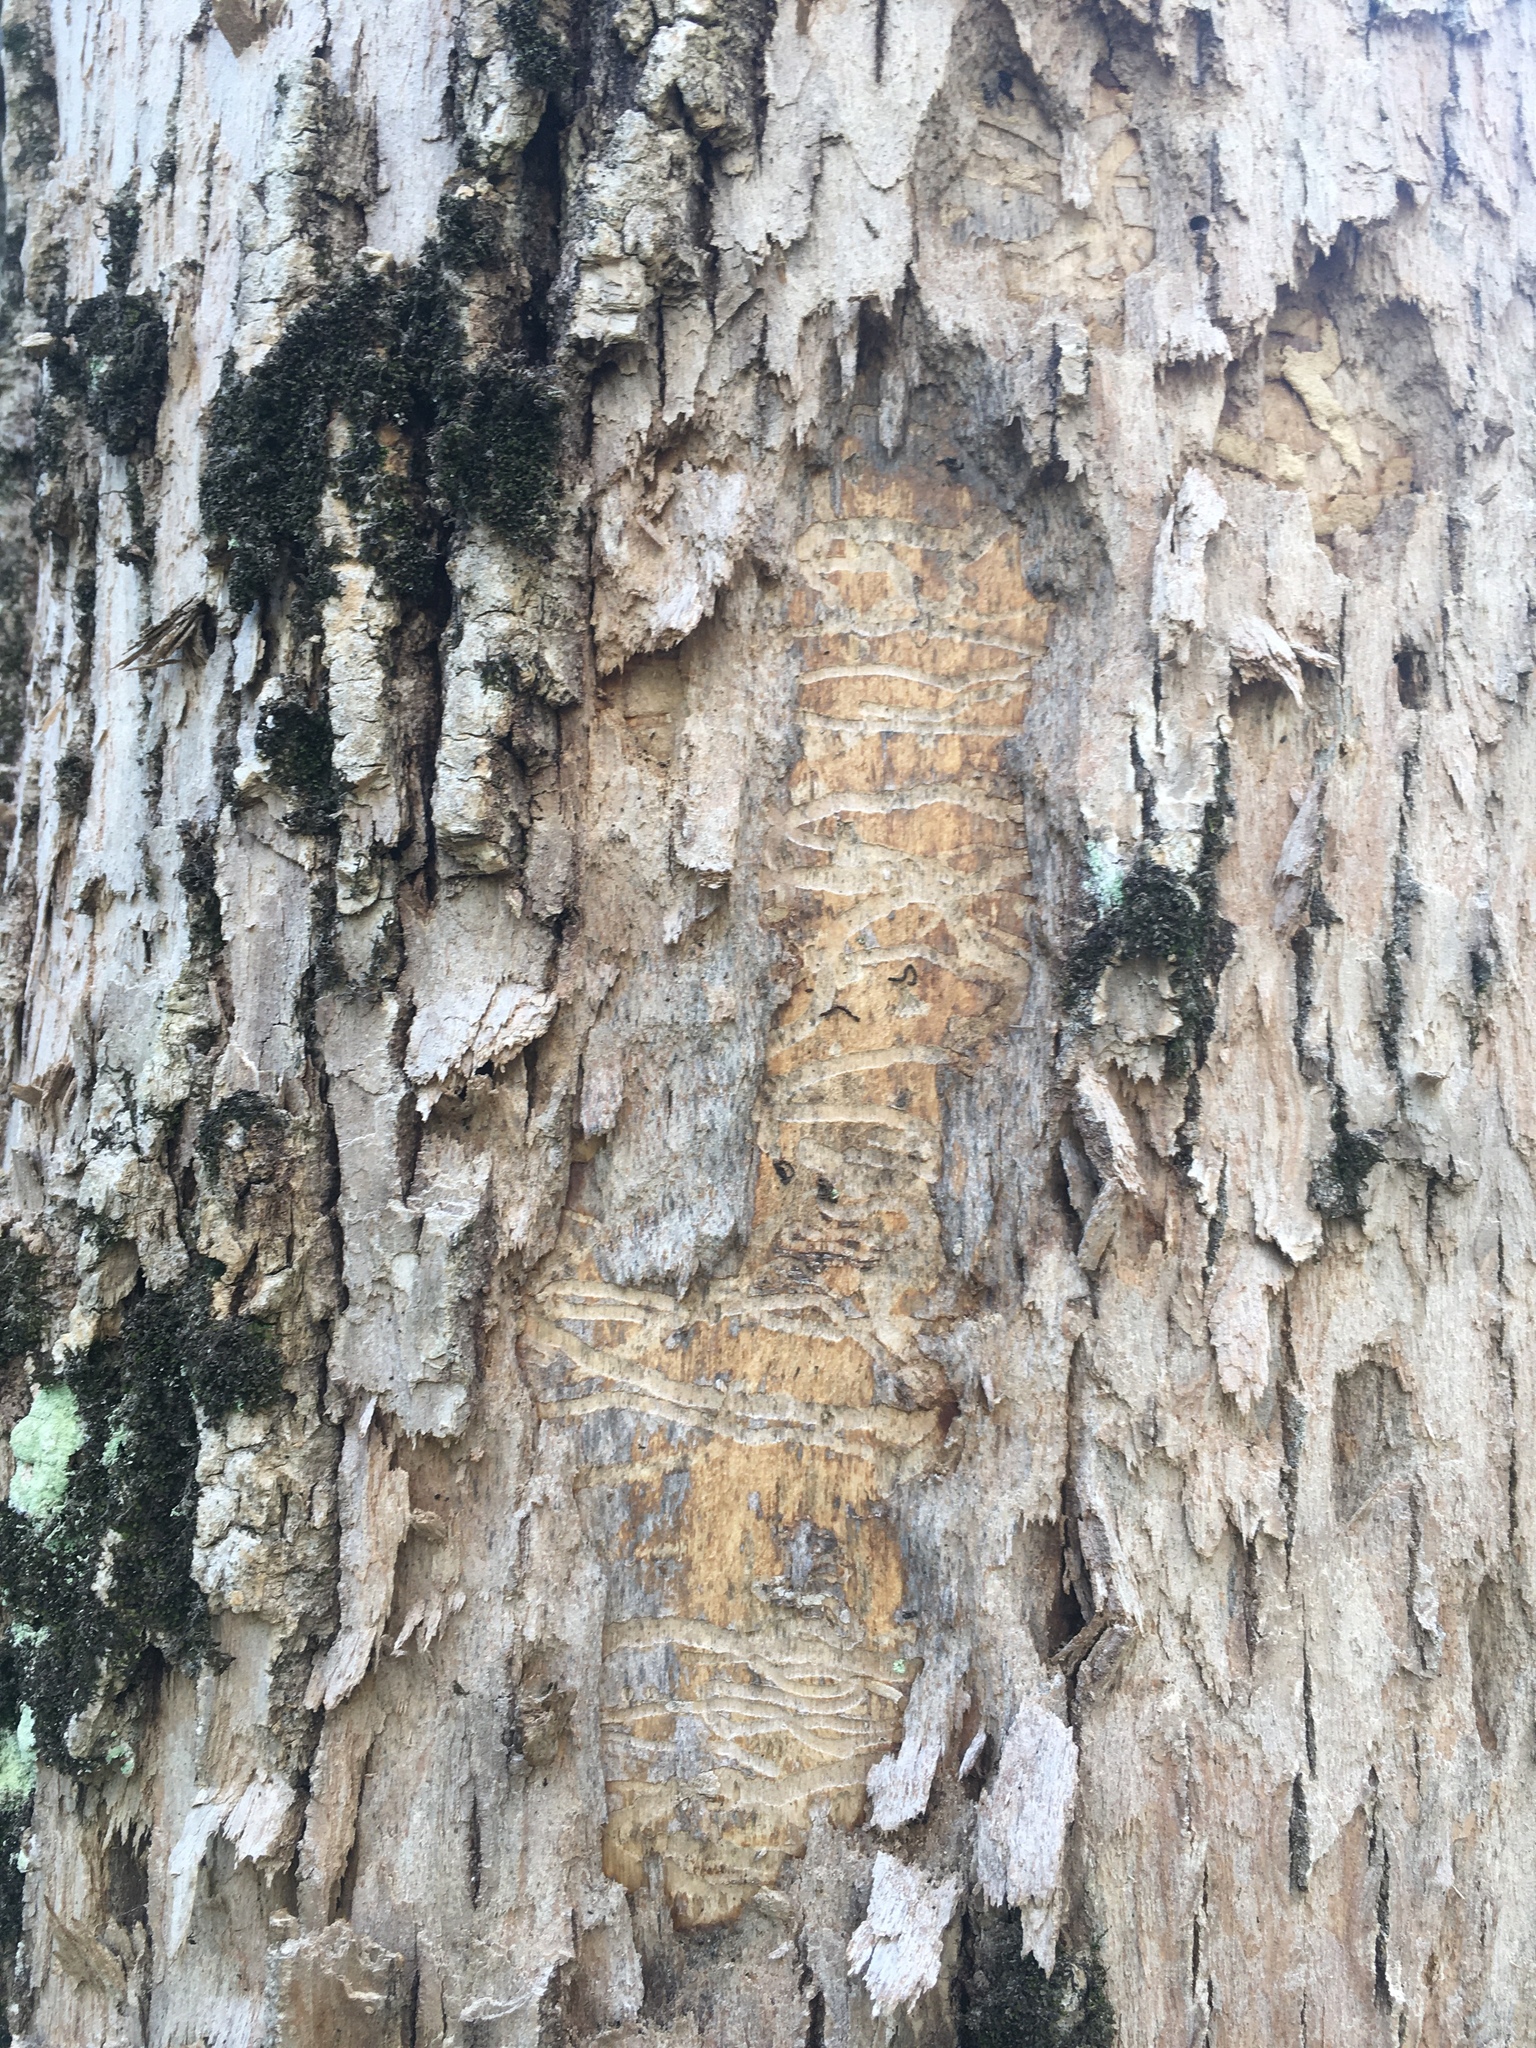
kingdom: Animalia
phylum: Arthropoda
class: Insecta
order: Coleoptera
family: Buprestidae
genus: Agrilus
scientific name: Agrilus planipennis
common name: Emerald ash borer
